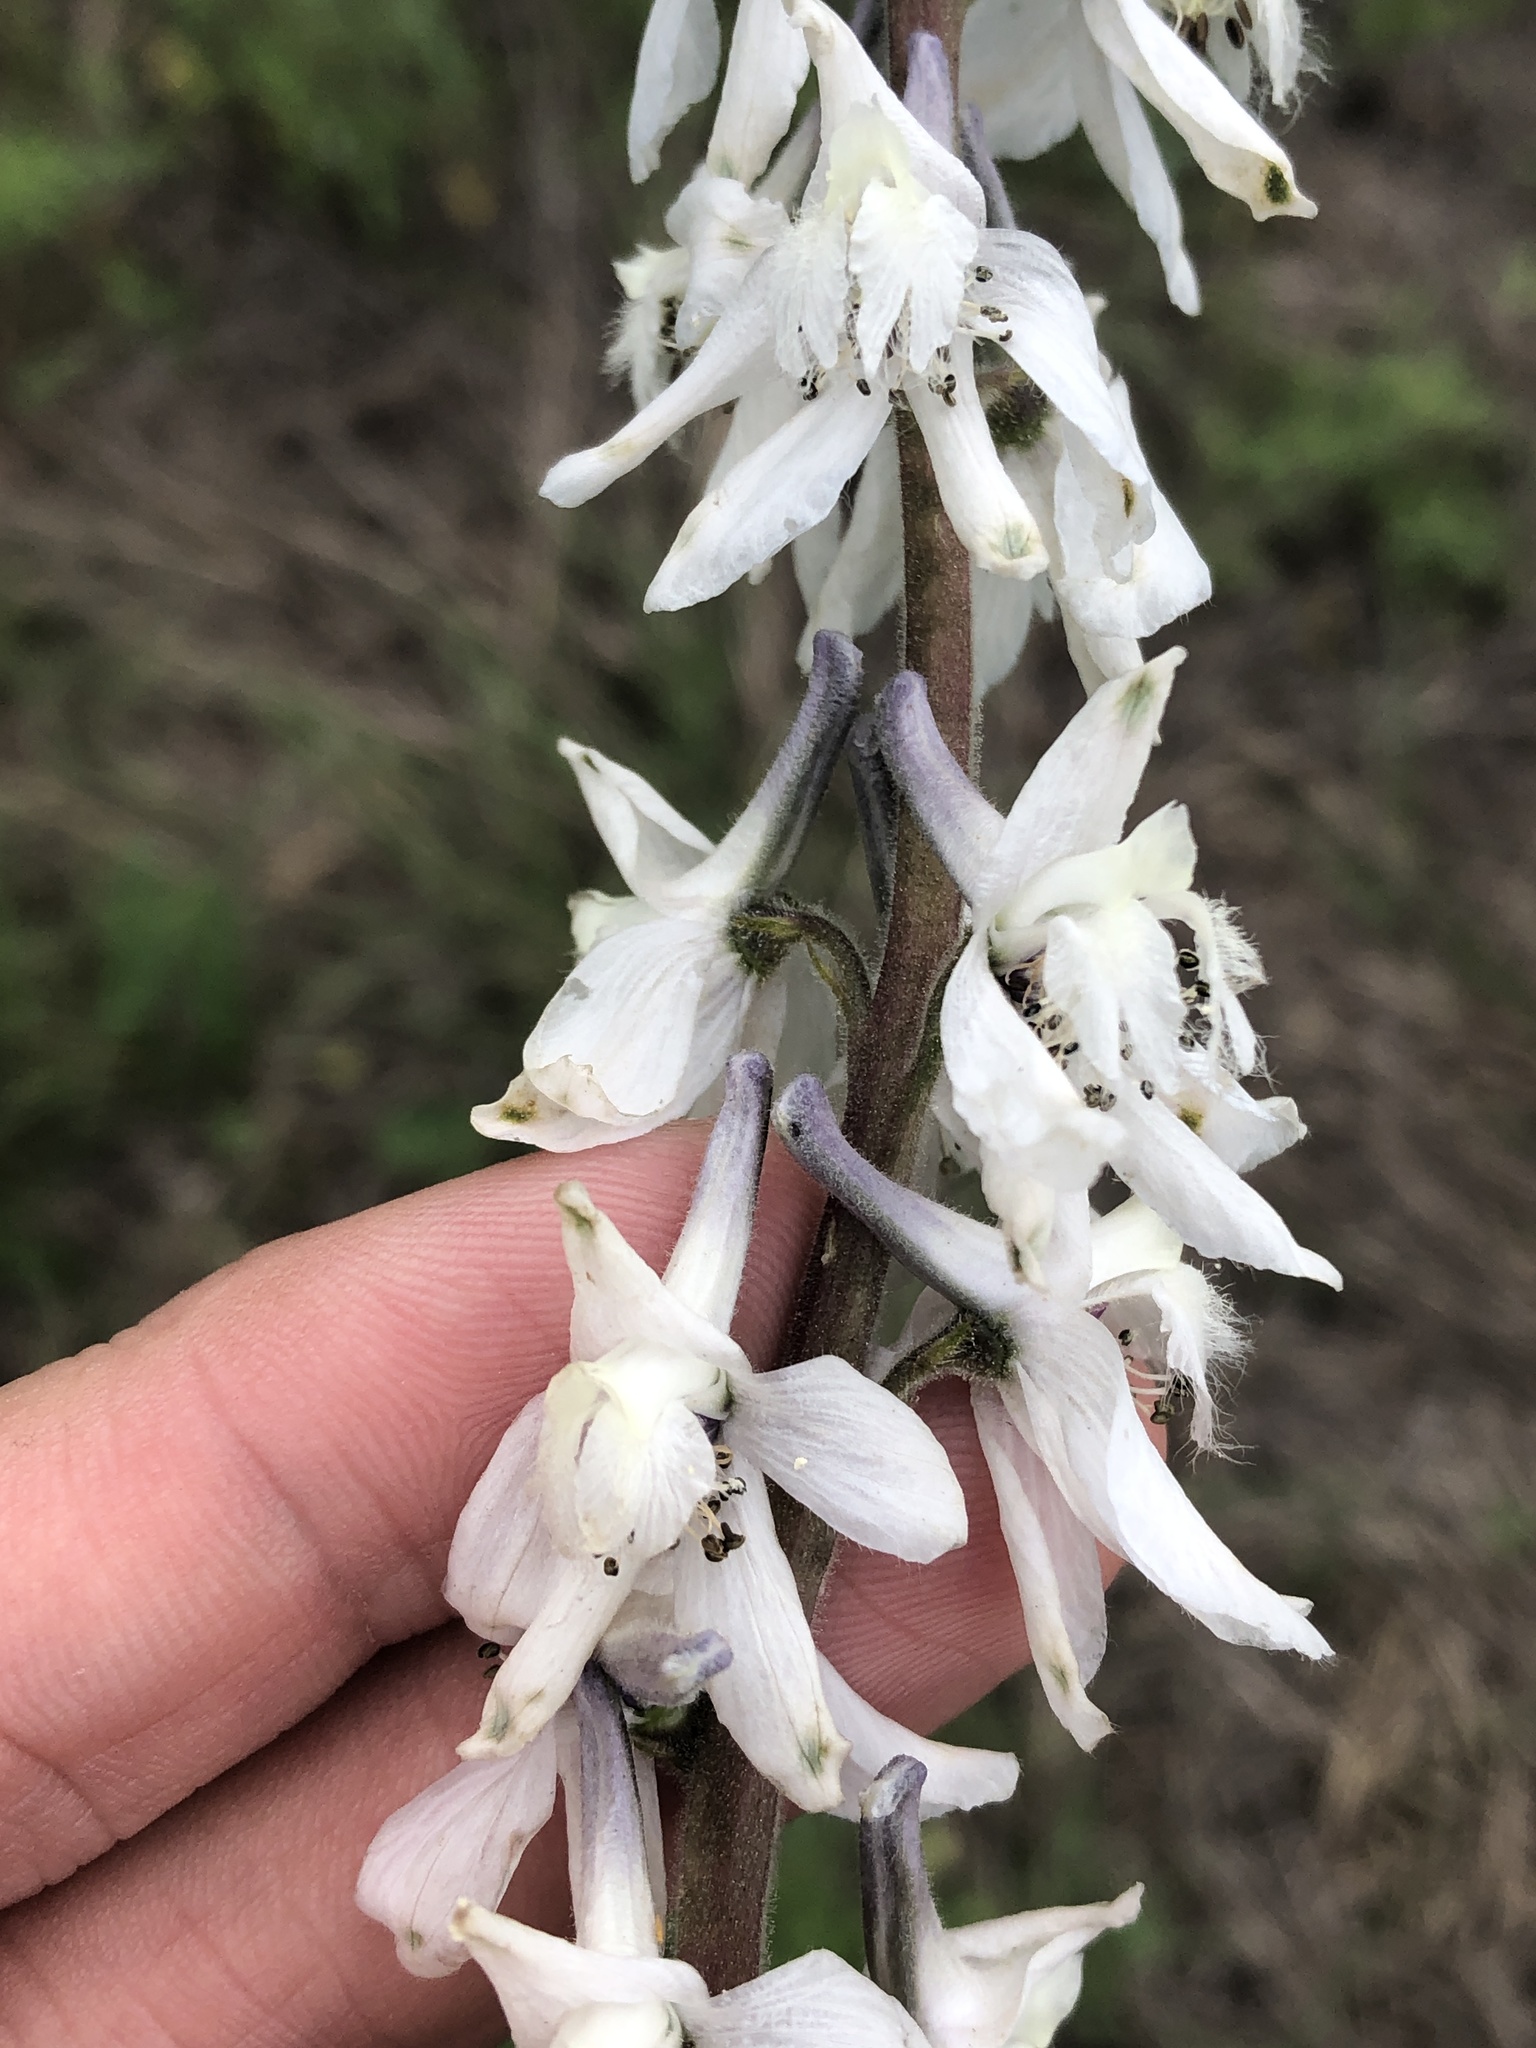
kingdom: Plantae
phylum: Tracheophyta
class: Magnoliopsida
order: Ranunculales
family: Ranunculaceae
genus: Delphinium
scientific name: Delphinium carolinianum
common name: Carolina larkspur
